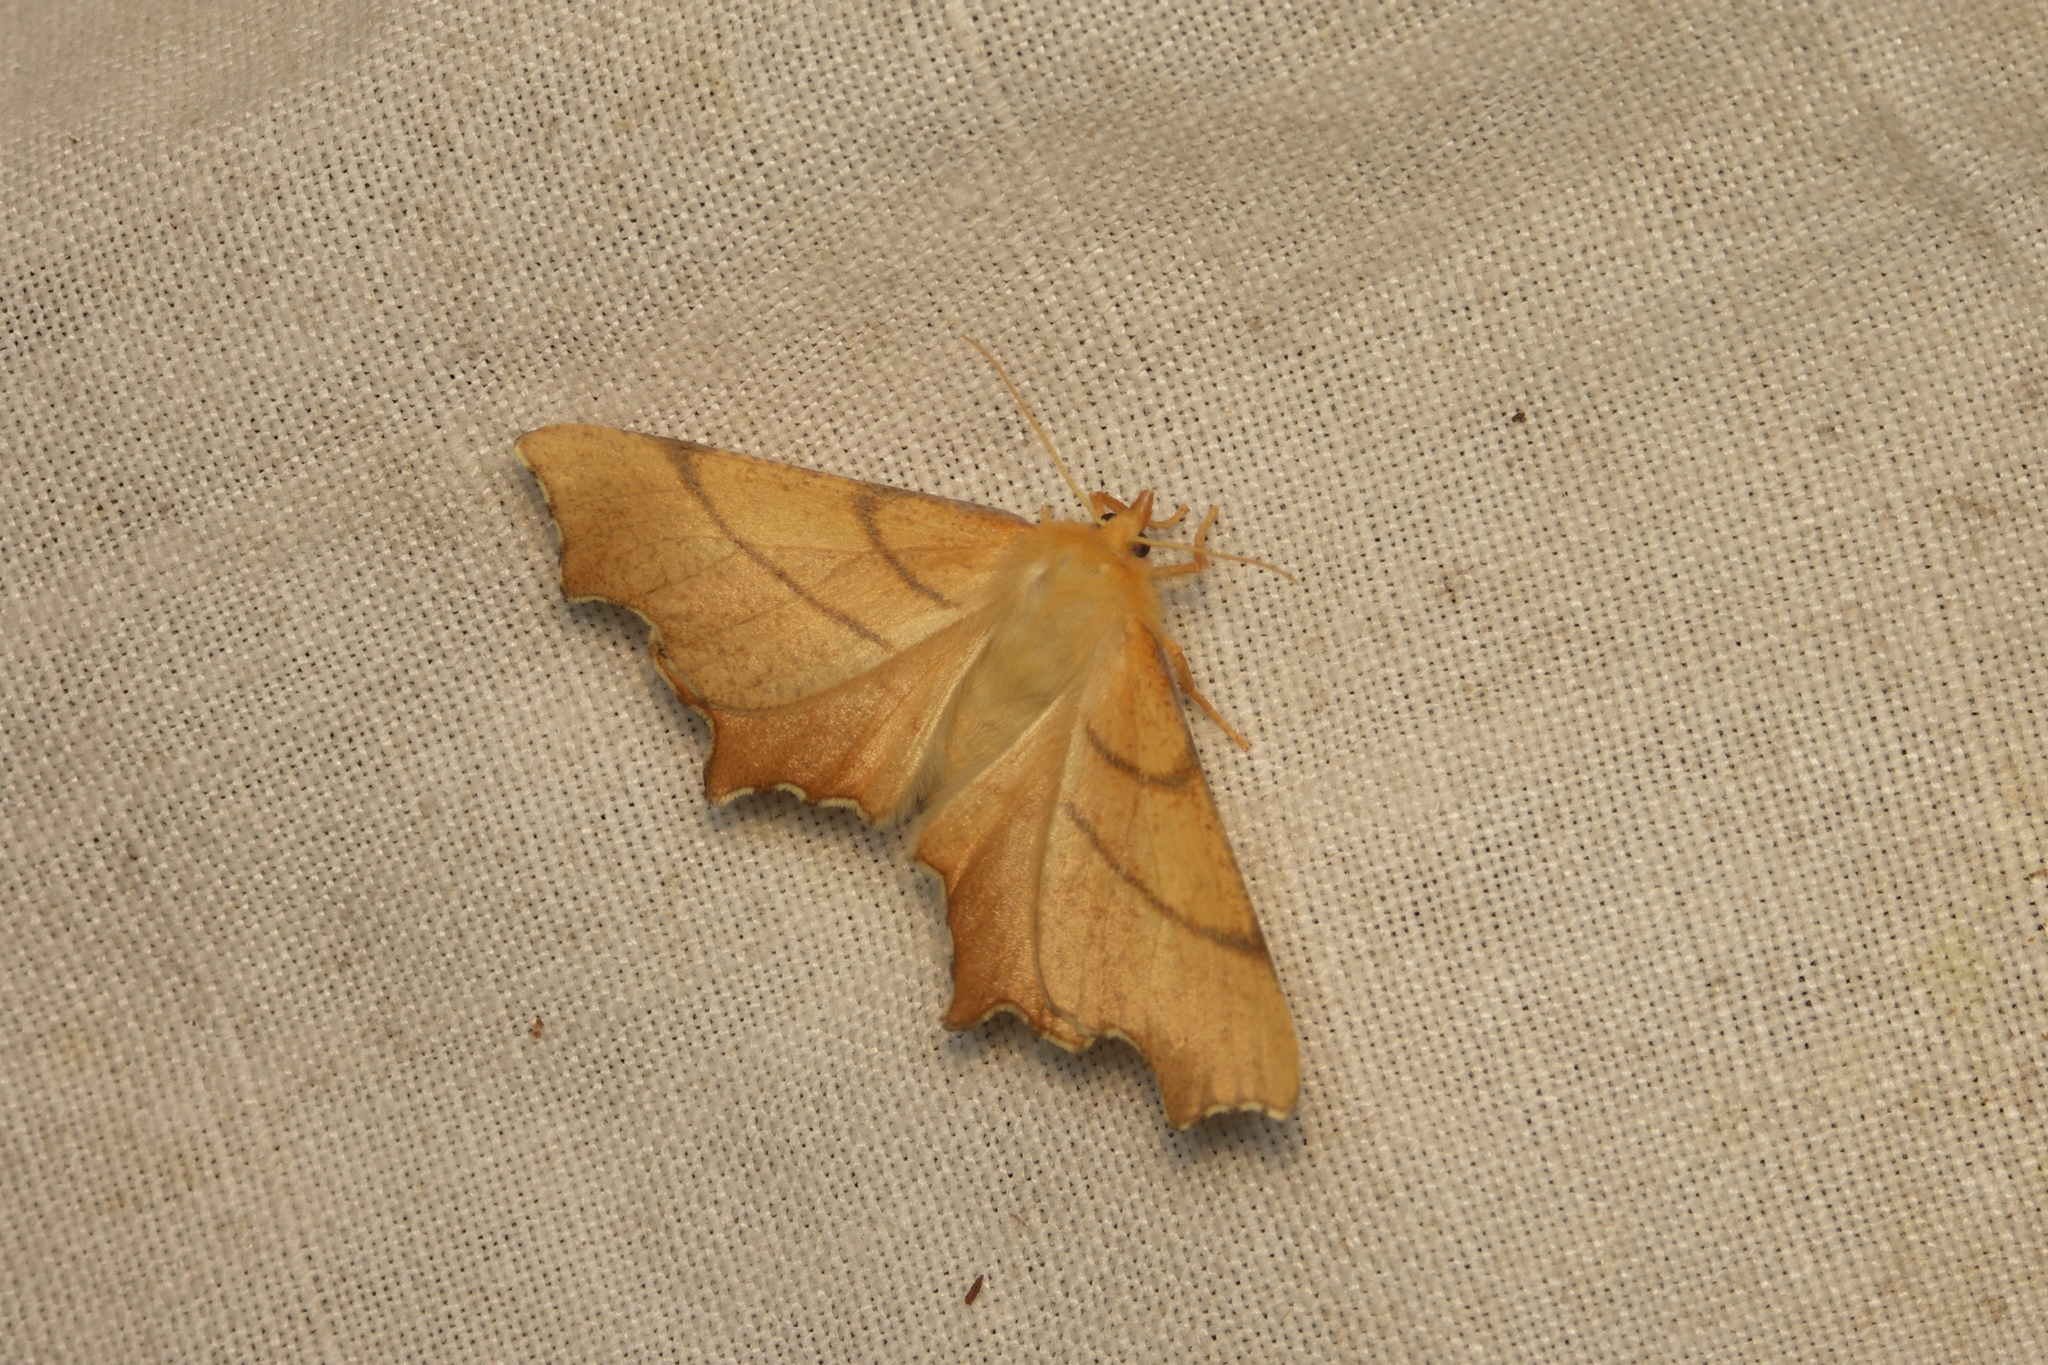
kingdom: Animalia
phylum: Arthropoda
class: Insecta
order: Lepidoptera
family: Geometridae
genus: Ennomos
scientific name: Ennomos erosaria
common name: September thorn
